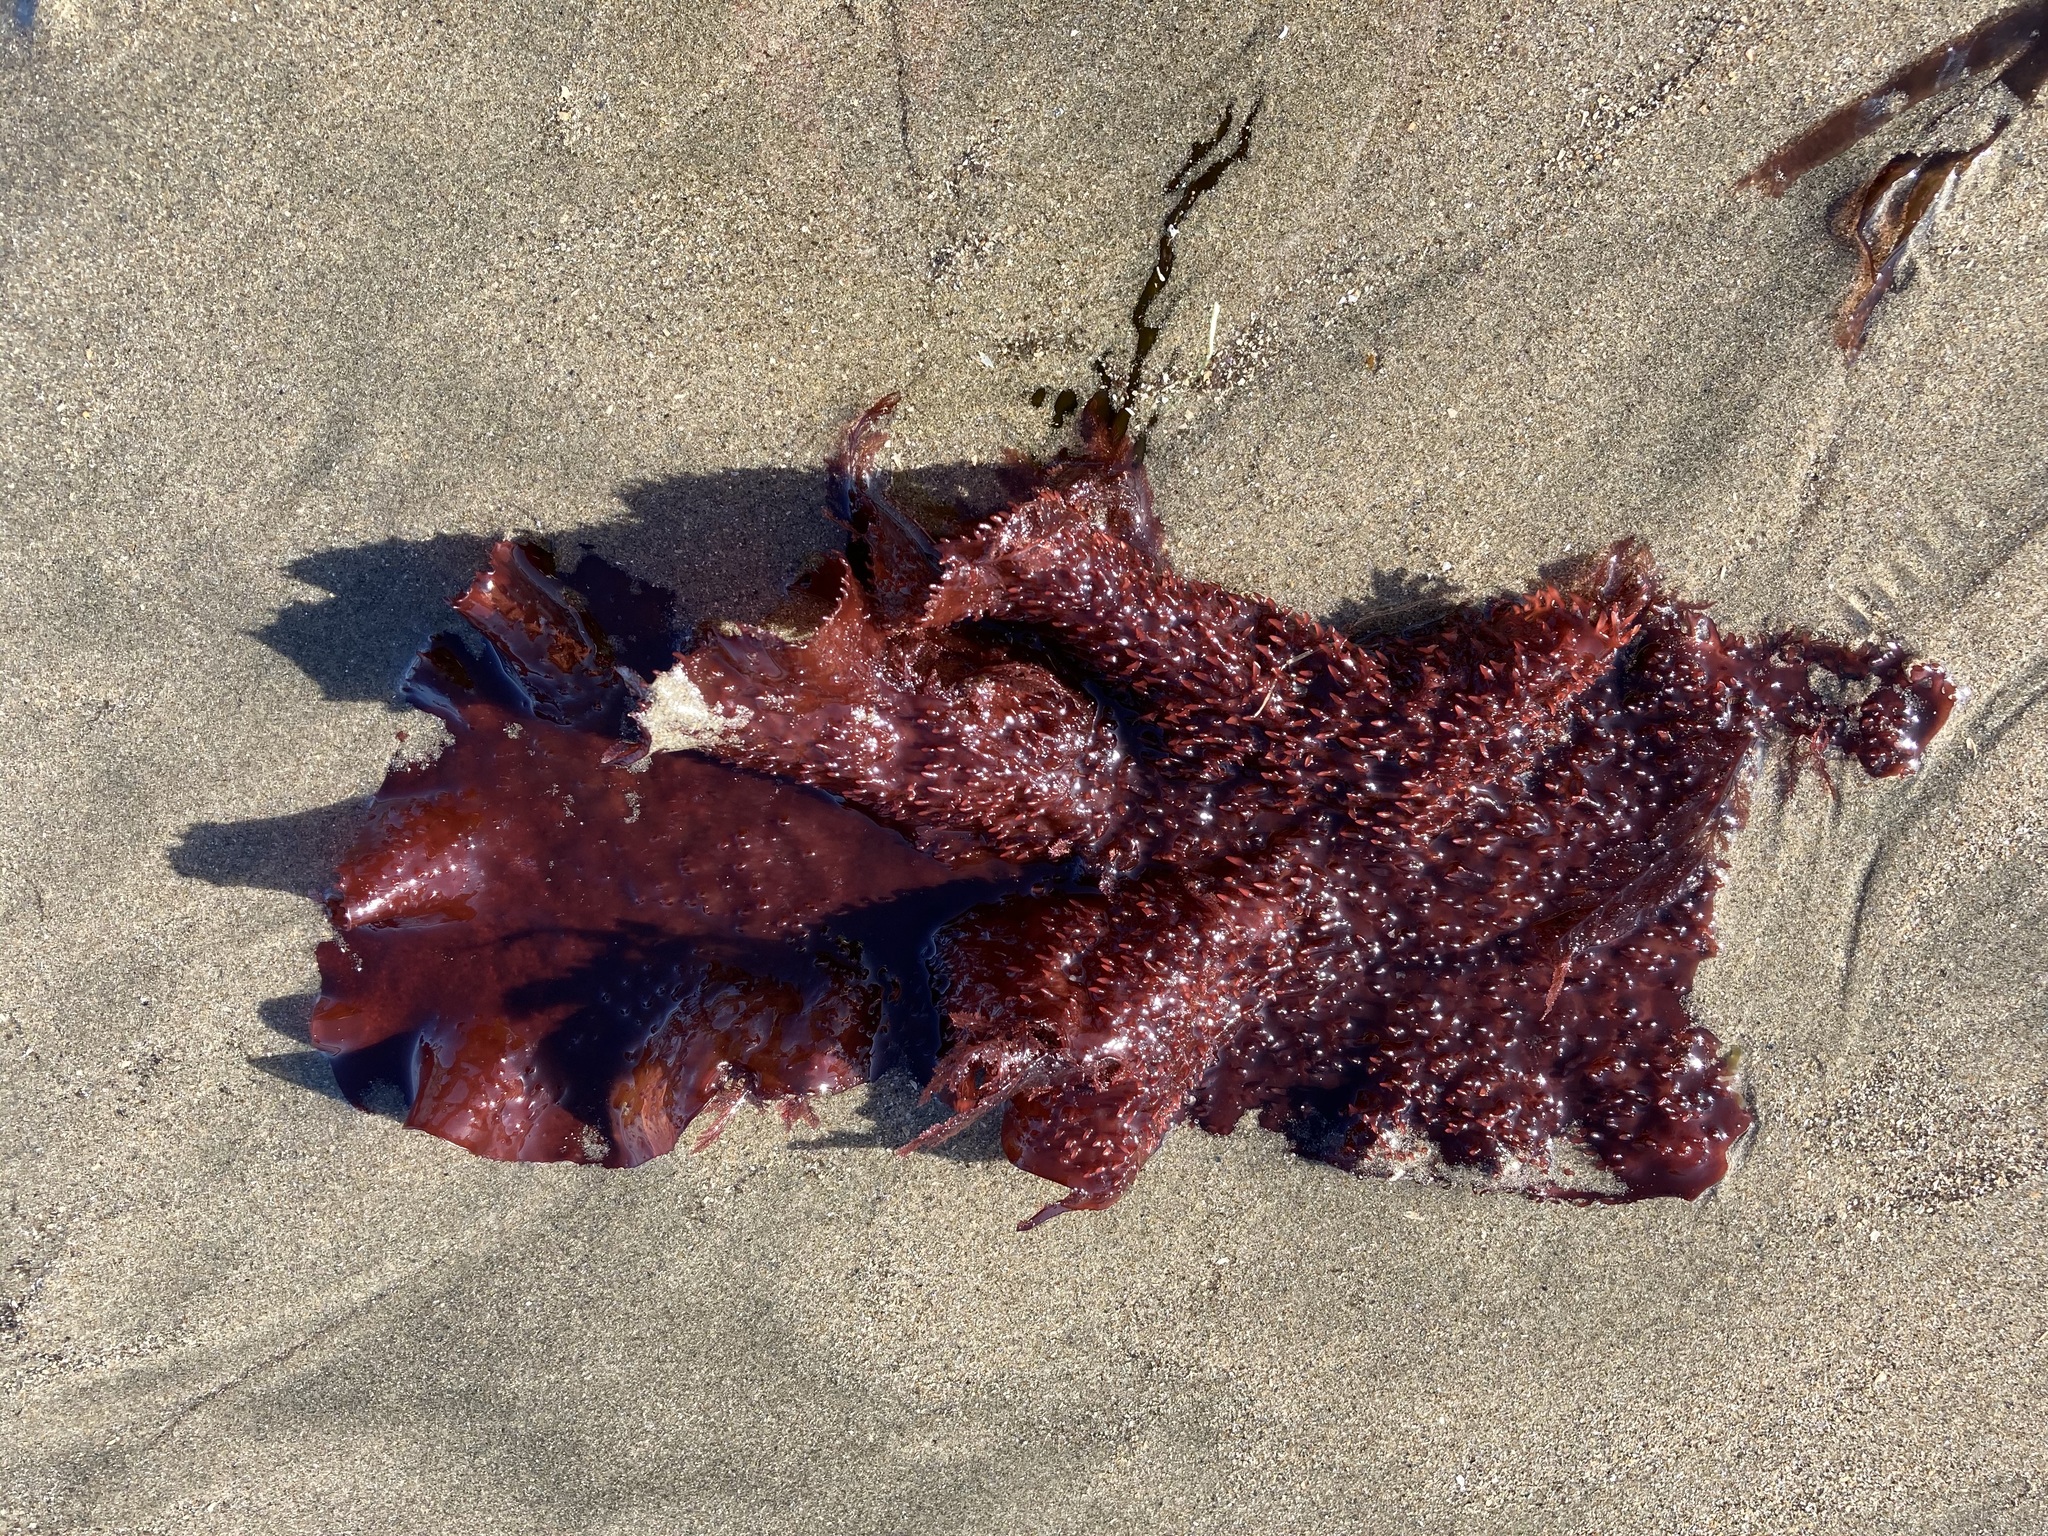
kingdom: Plantae
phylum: Rhodophyta
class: Florideophyceae
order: Gigartinales
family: Gigartinaceae
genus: Chondracanthus
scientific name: Chondracanthus exasperatus
